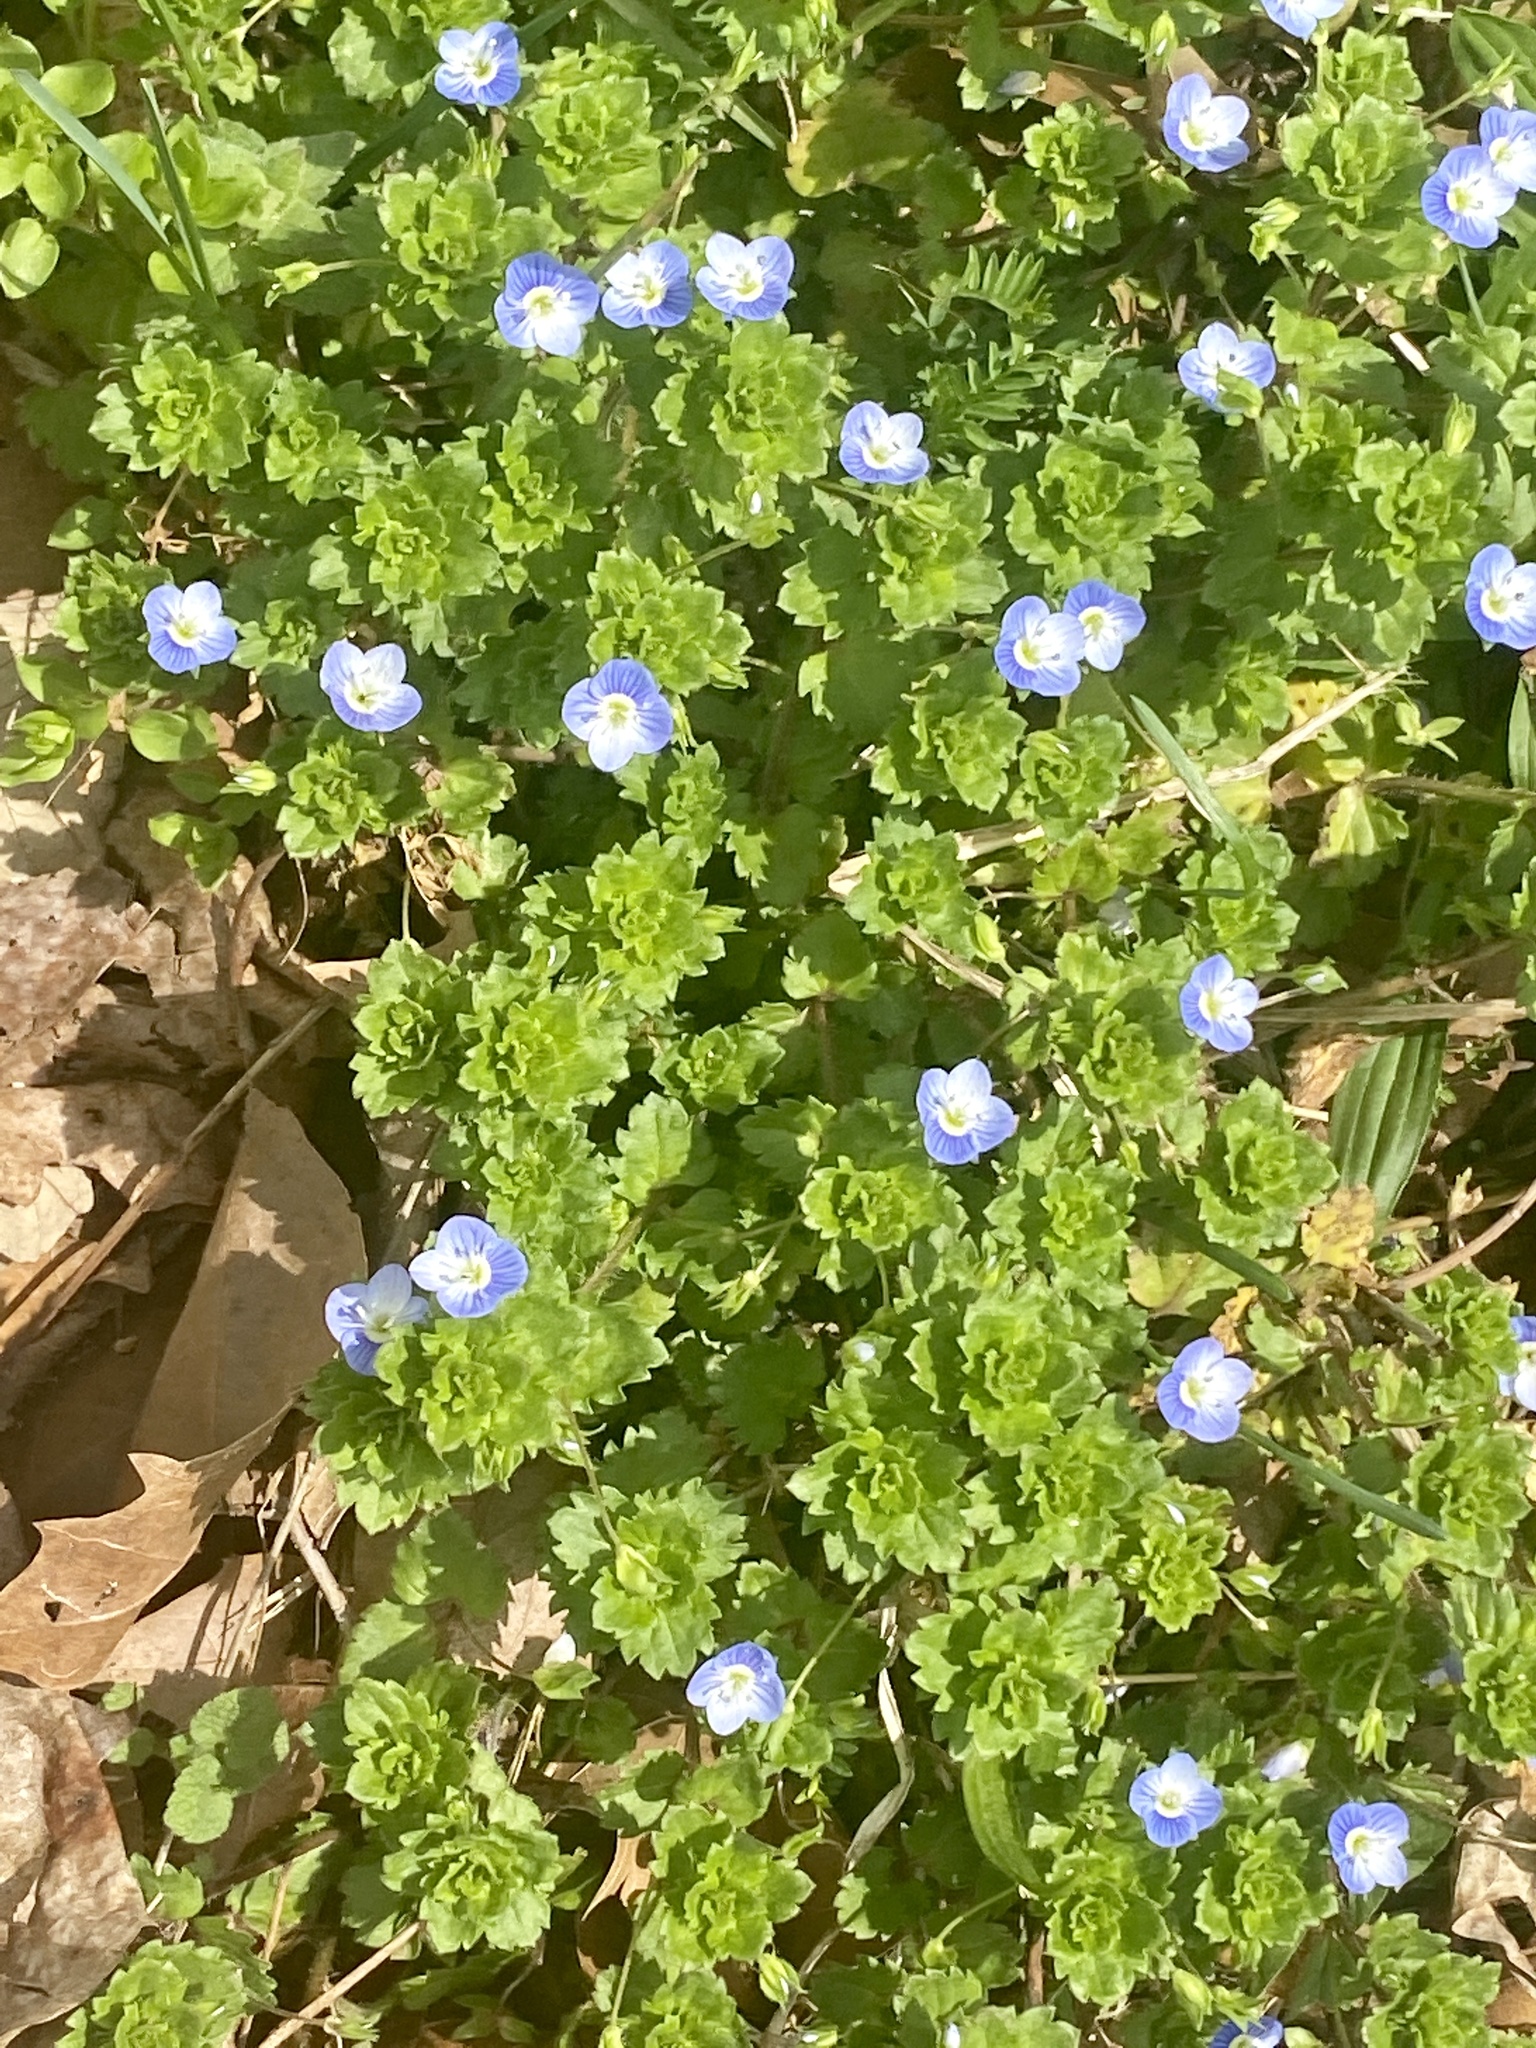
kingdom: Plantae
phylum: Tracheophyta
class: Magnoliopsida
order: Lamiales
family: Plantaginaceae
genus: Veronica
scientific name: Veronica persica
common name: Common field-speedwell
